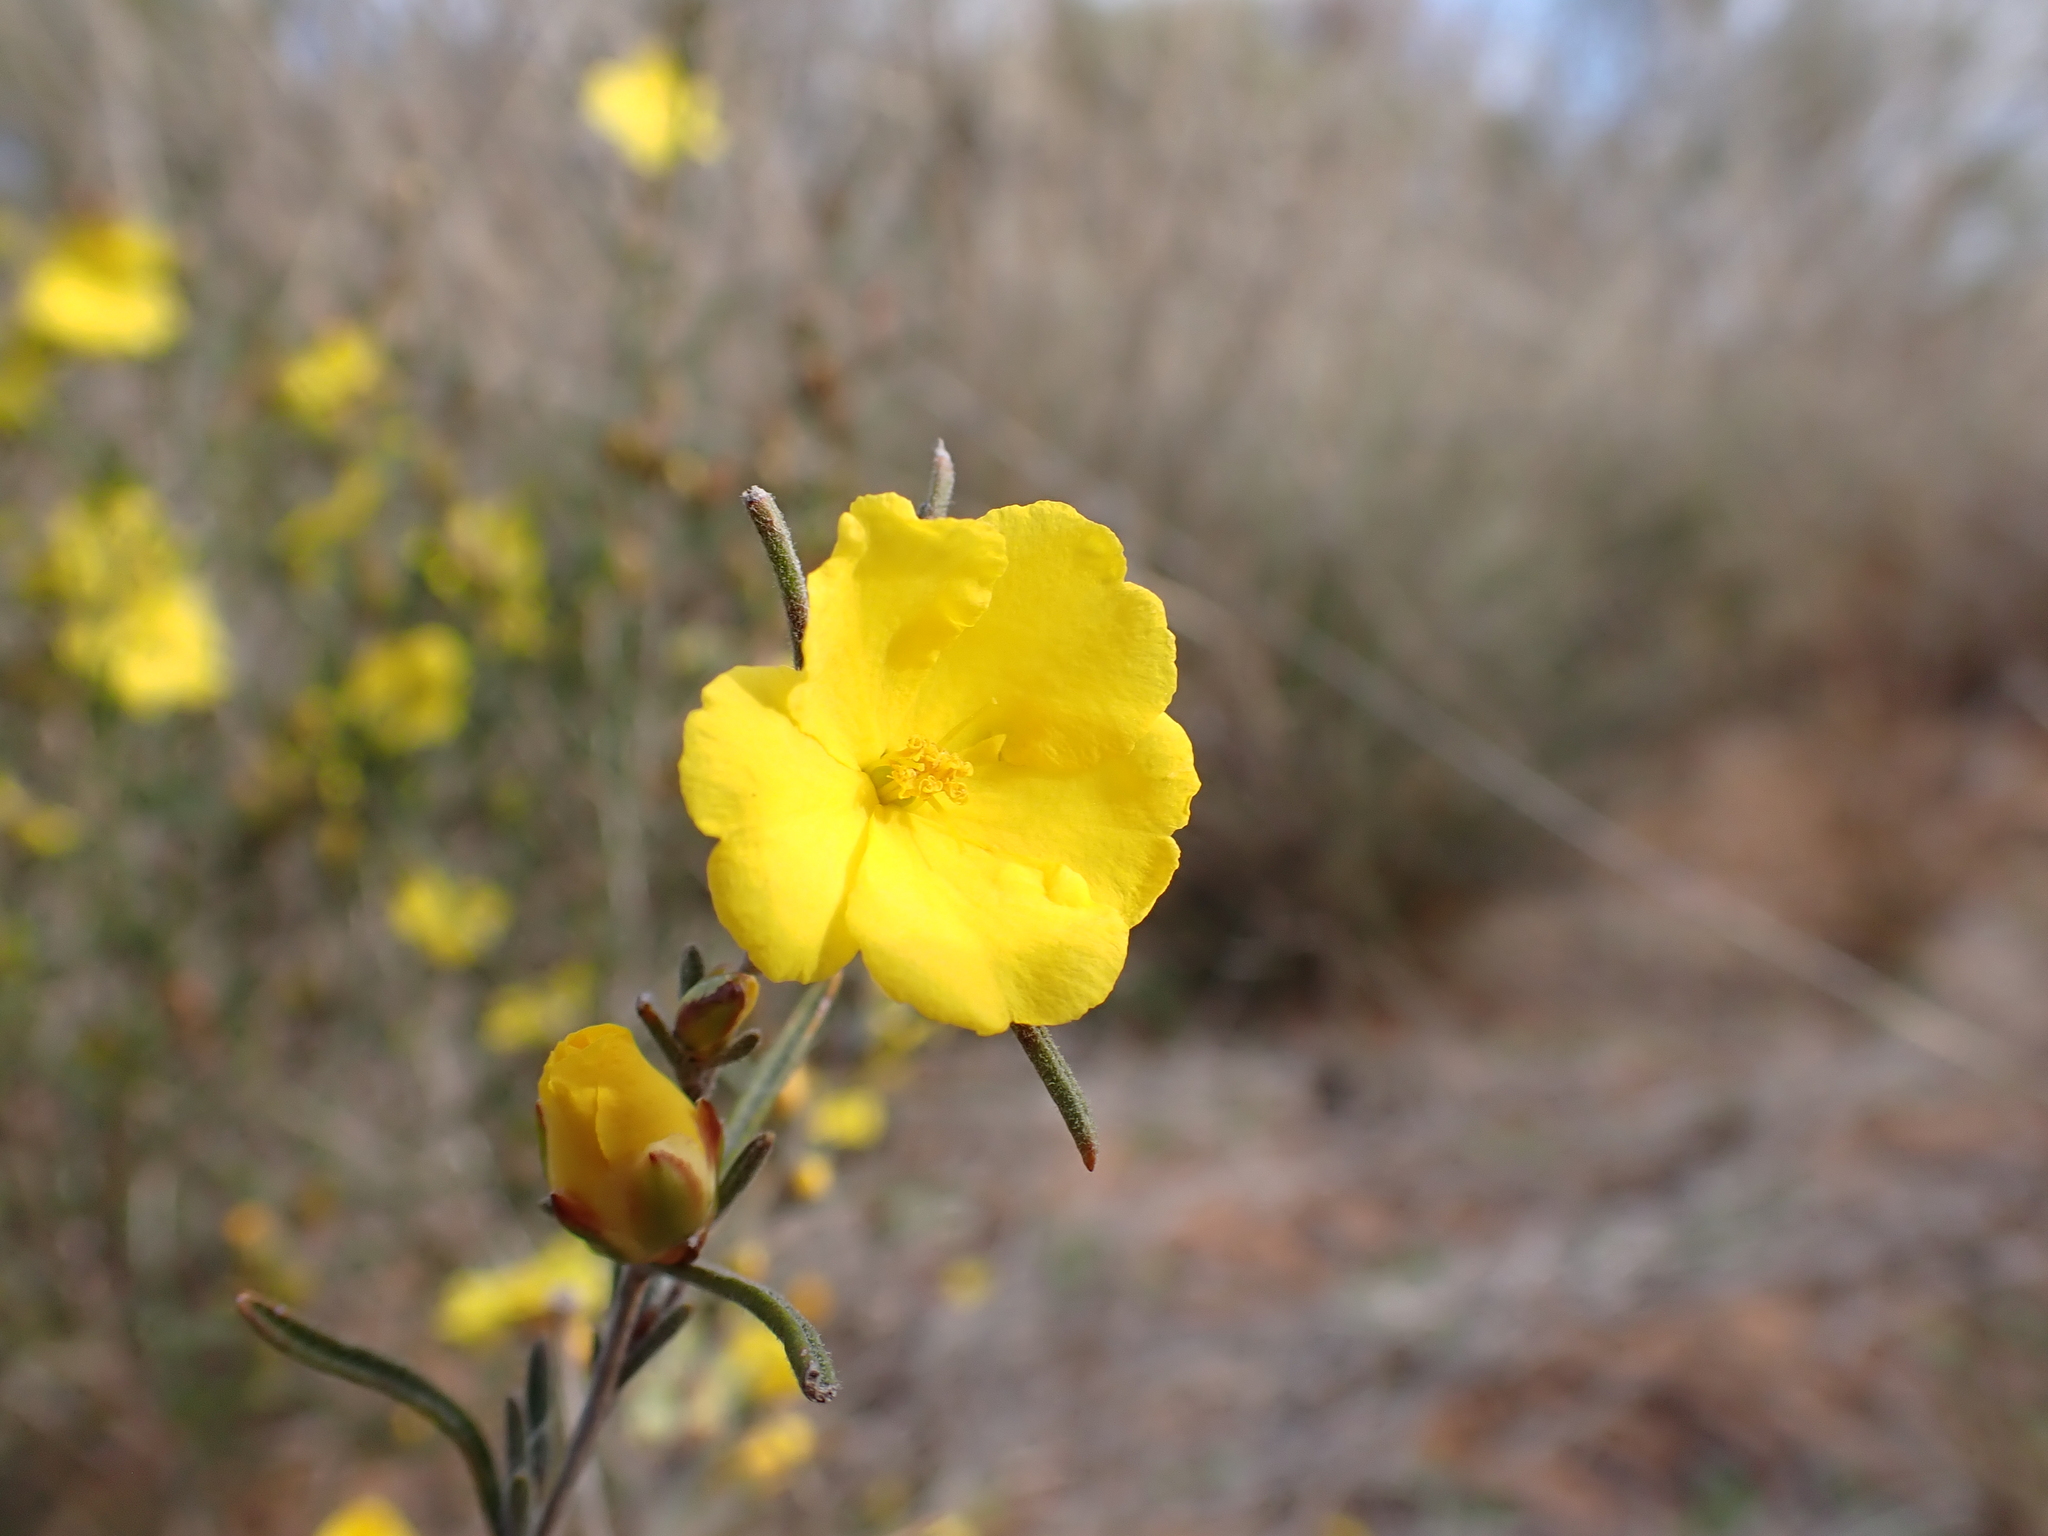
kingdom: Plantae
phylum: Tracheophyta
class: Magnoliopsida
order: Dilleniales
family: Dilleniaceae
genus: Hibbertia
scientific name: Hibbertia virgata
